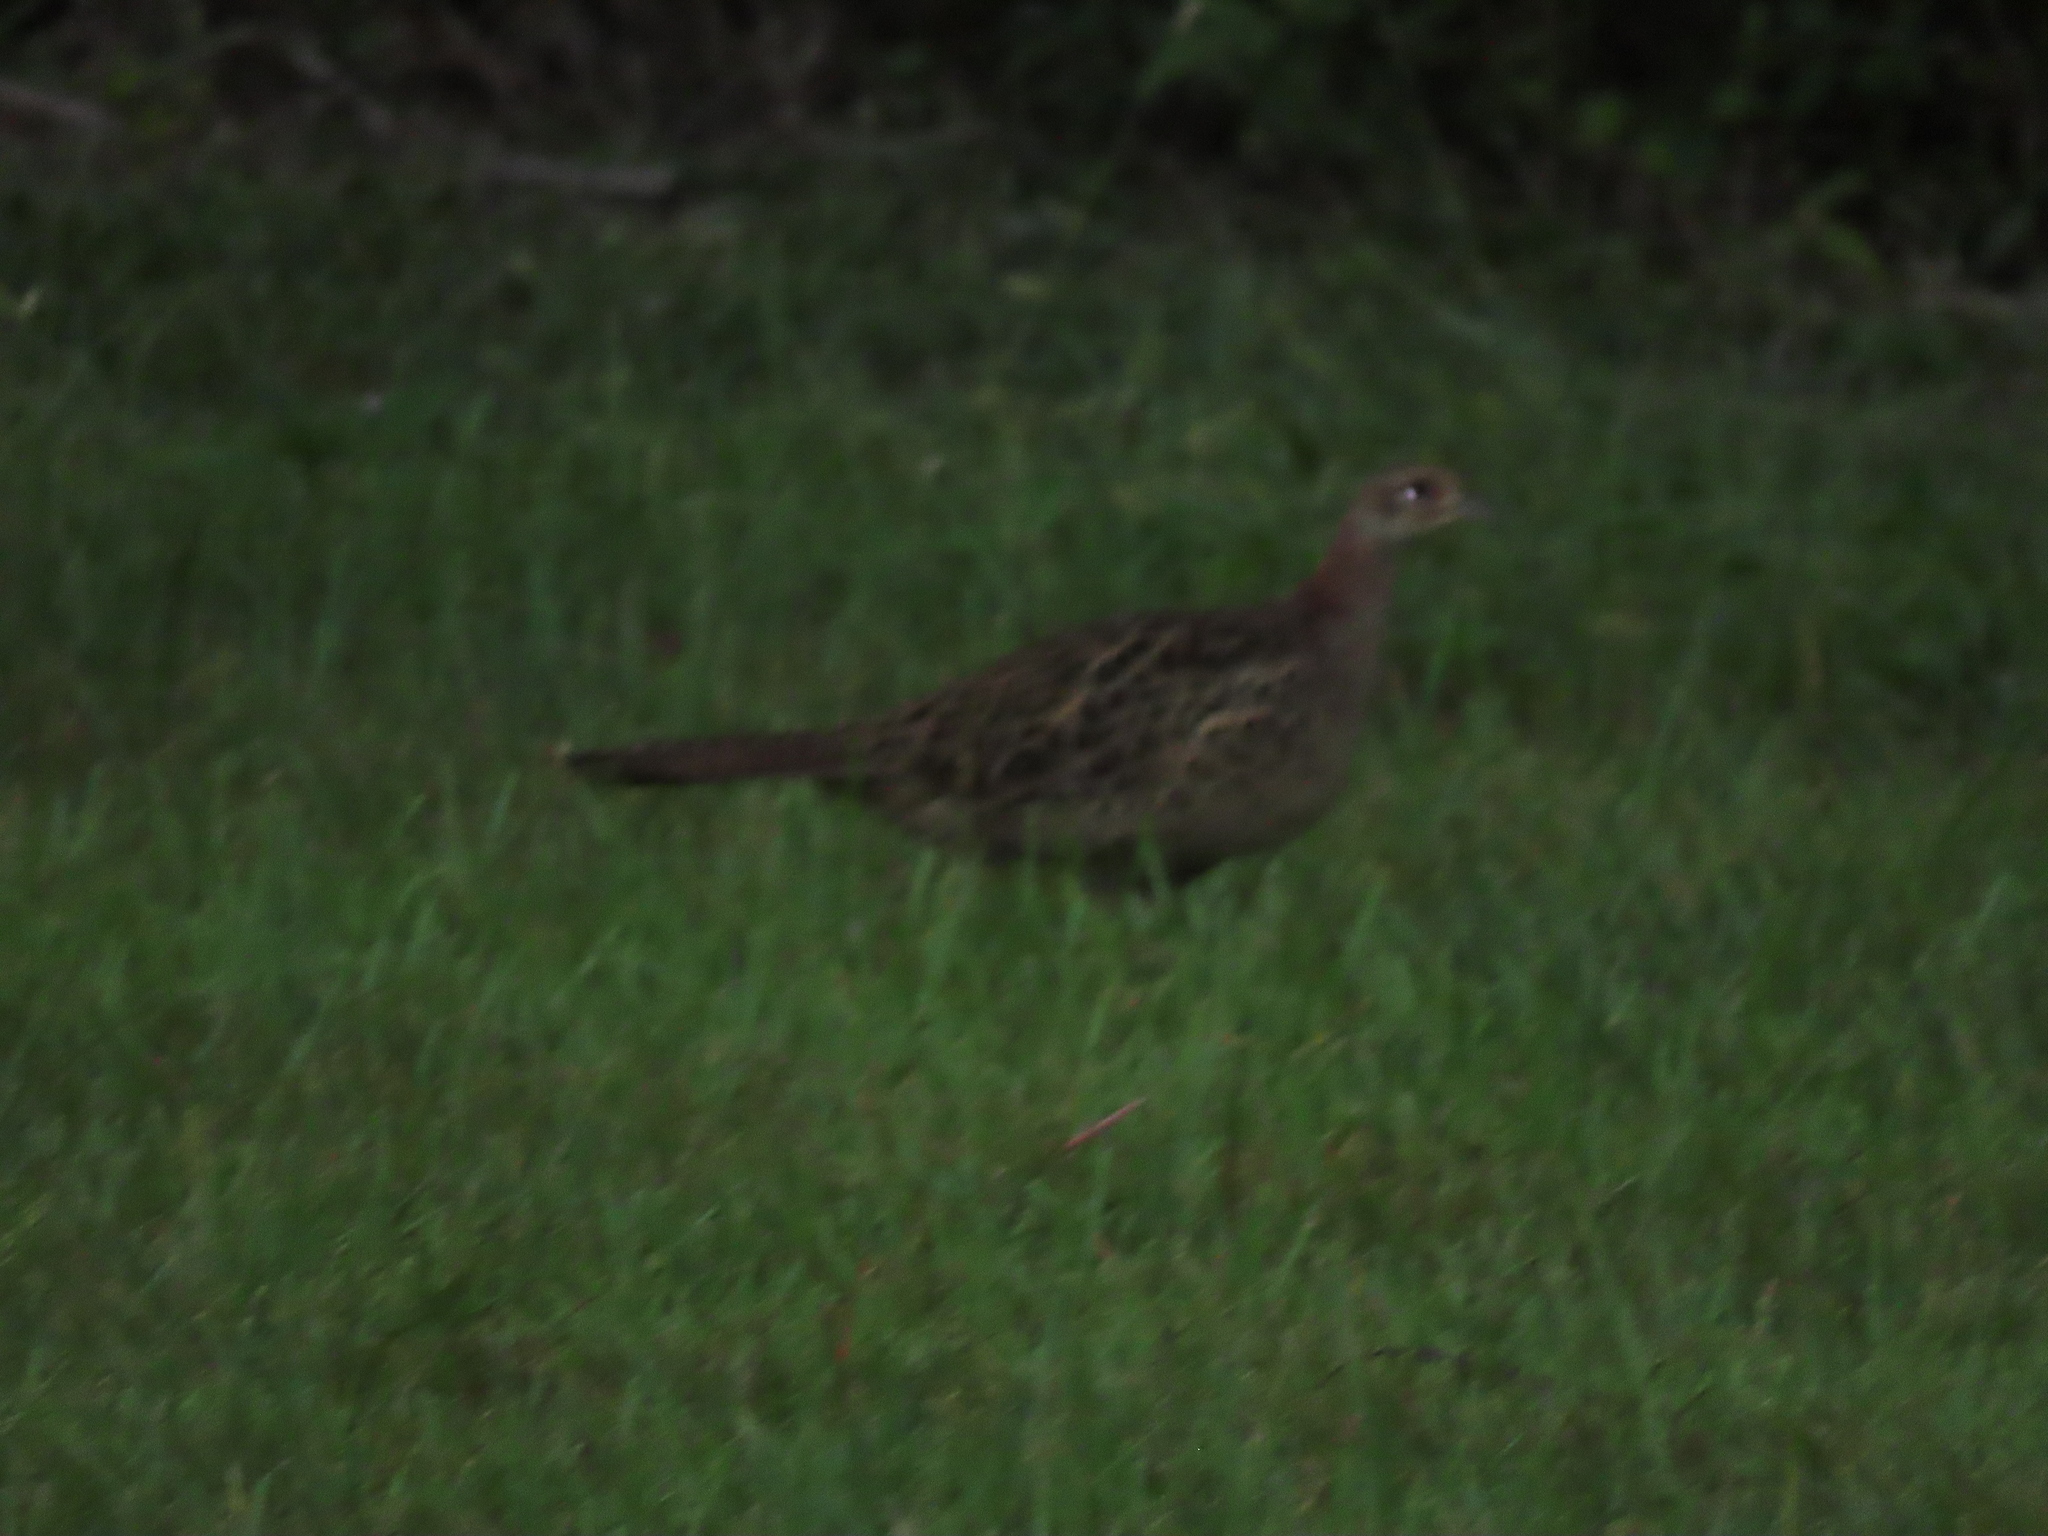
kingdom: Animalia
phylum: Chordata
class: Aves
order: Galliformes
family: Phasianidae
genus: Phasianus
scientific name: Phasianus colchicus
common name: Common pheasant
